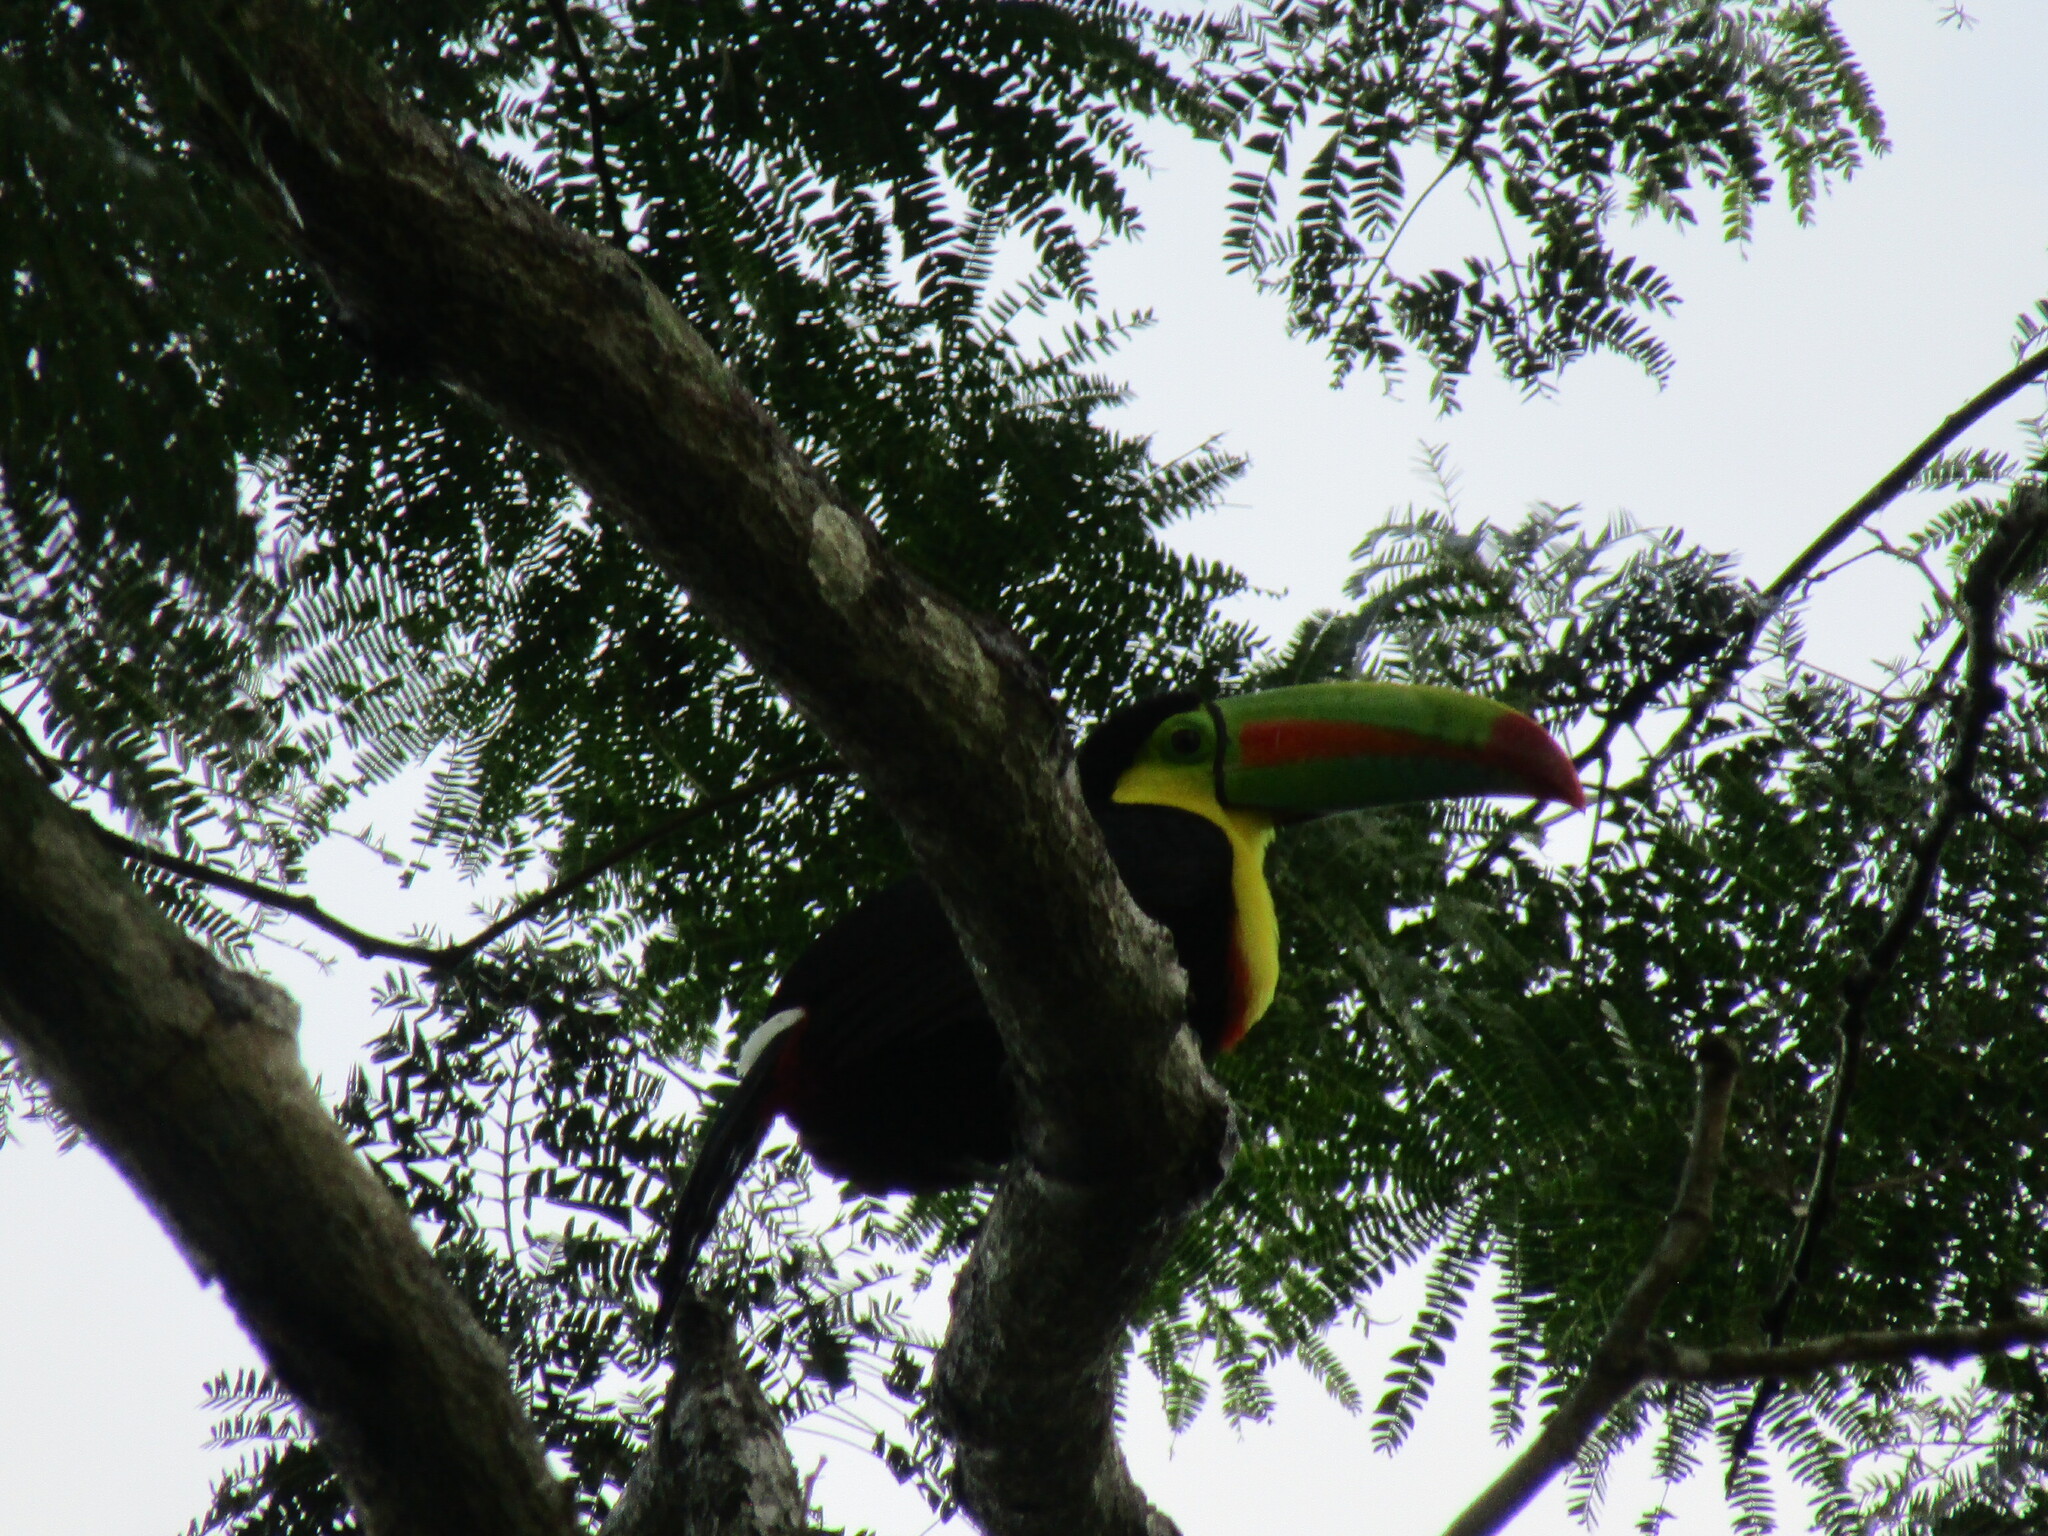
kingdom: Animalia
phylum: Chordata
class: Aves
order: Piciformes
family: Ramphastidae
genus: Ramphastos
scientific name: Ramphastos sulfuratus
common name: Keel-billed toucan
